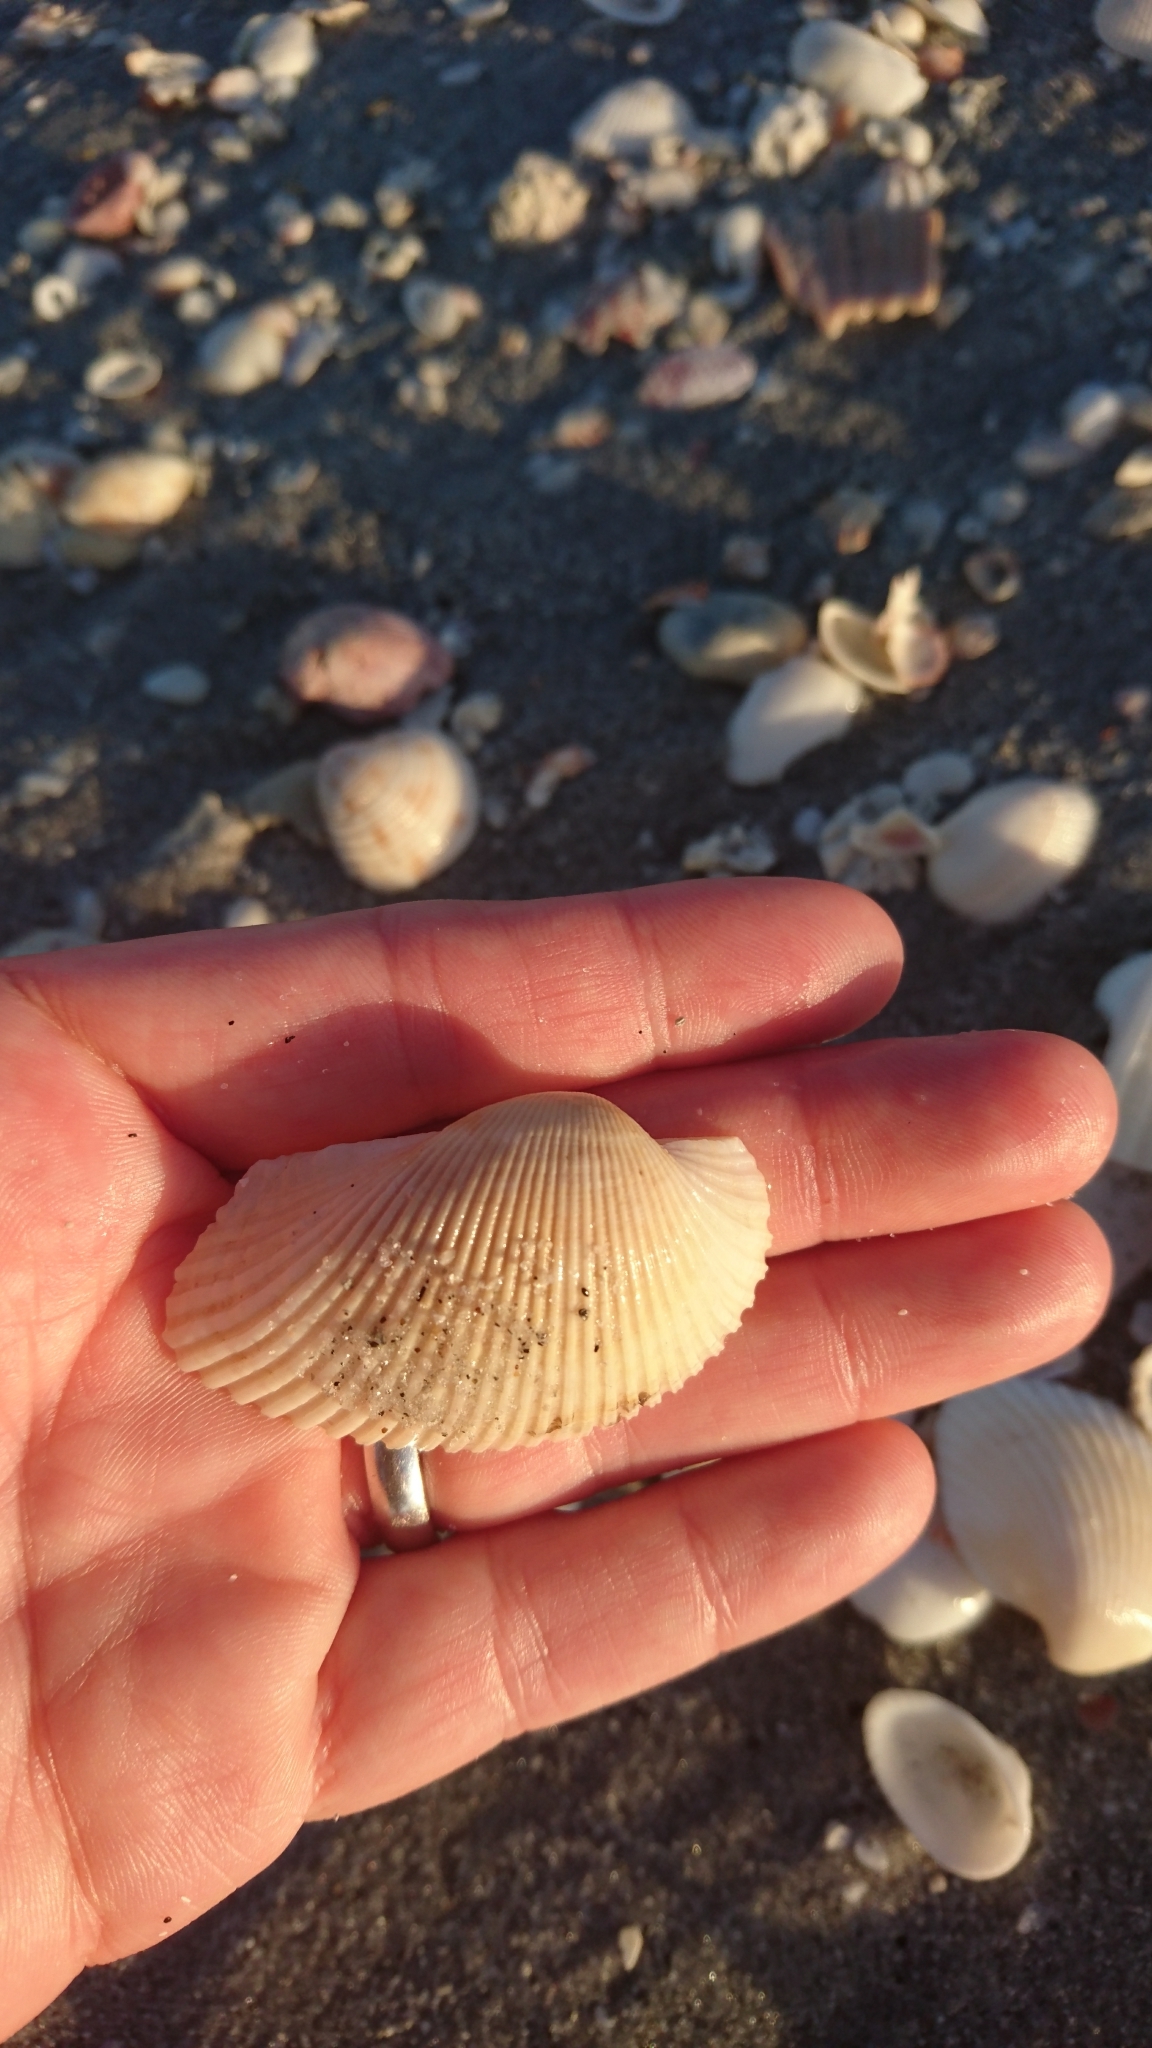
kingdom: Animalia
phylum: Mollusca
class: Bivalvia
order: Arcida
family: Arcidae
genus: Anadara
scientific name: Anadara secticostata
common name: Cut-ribbed ark
